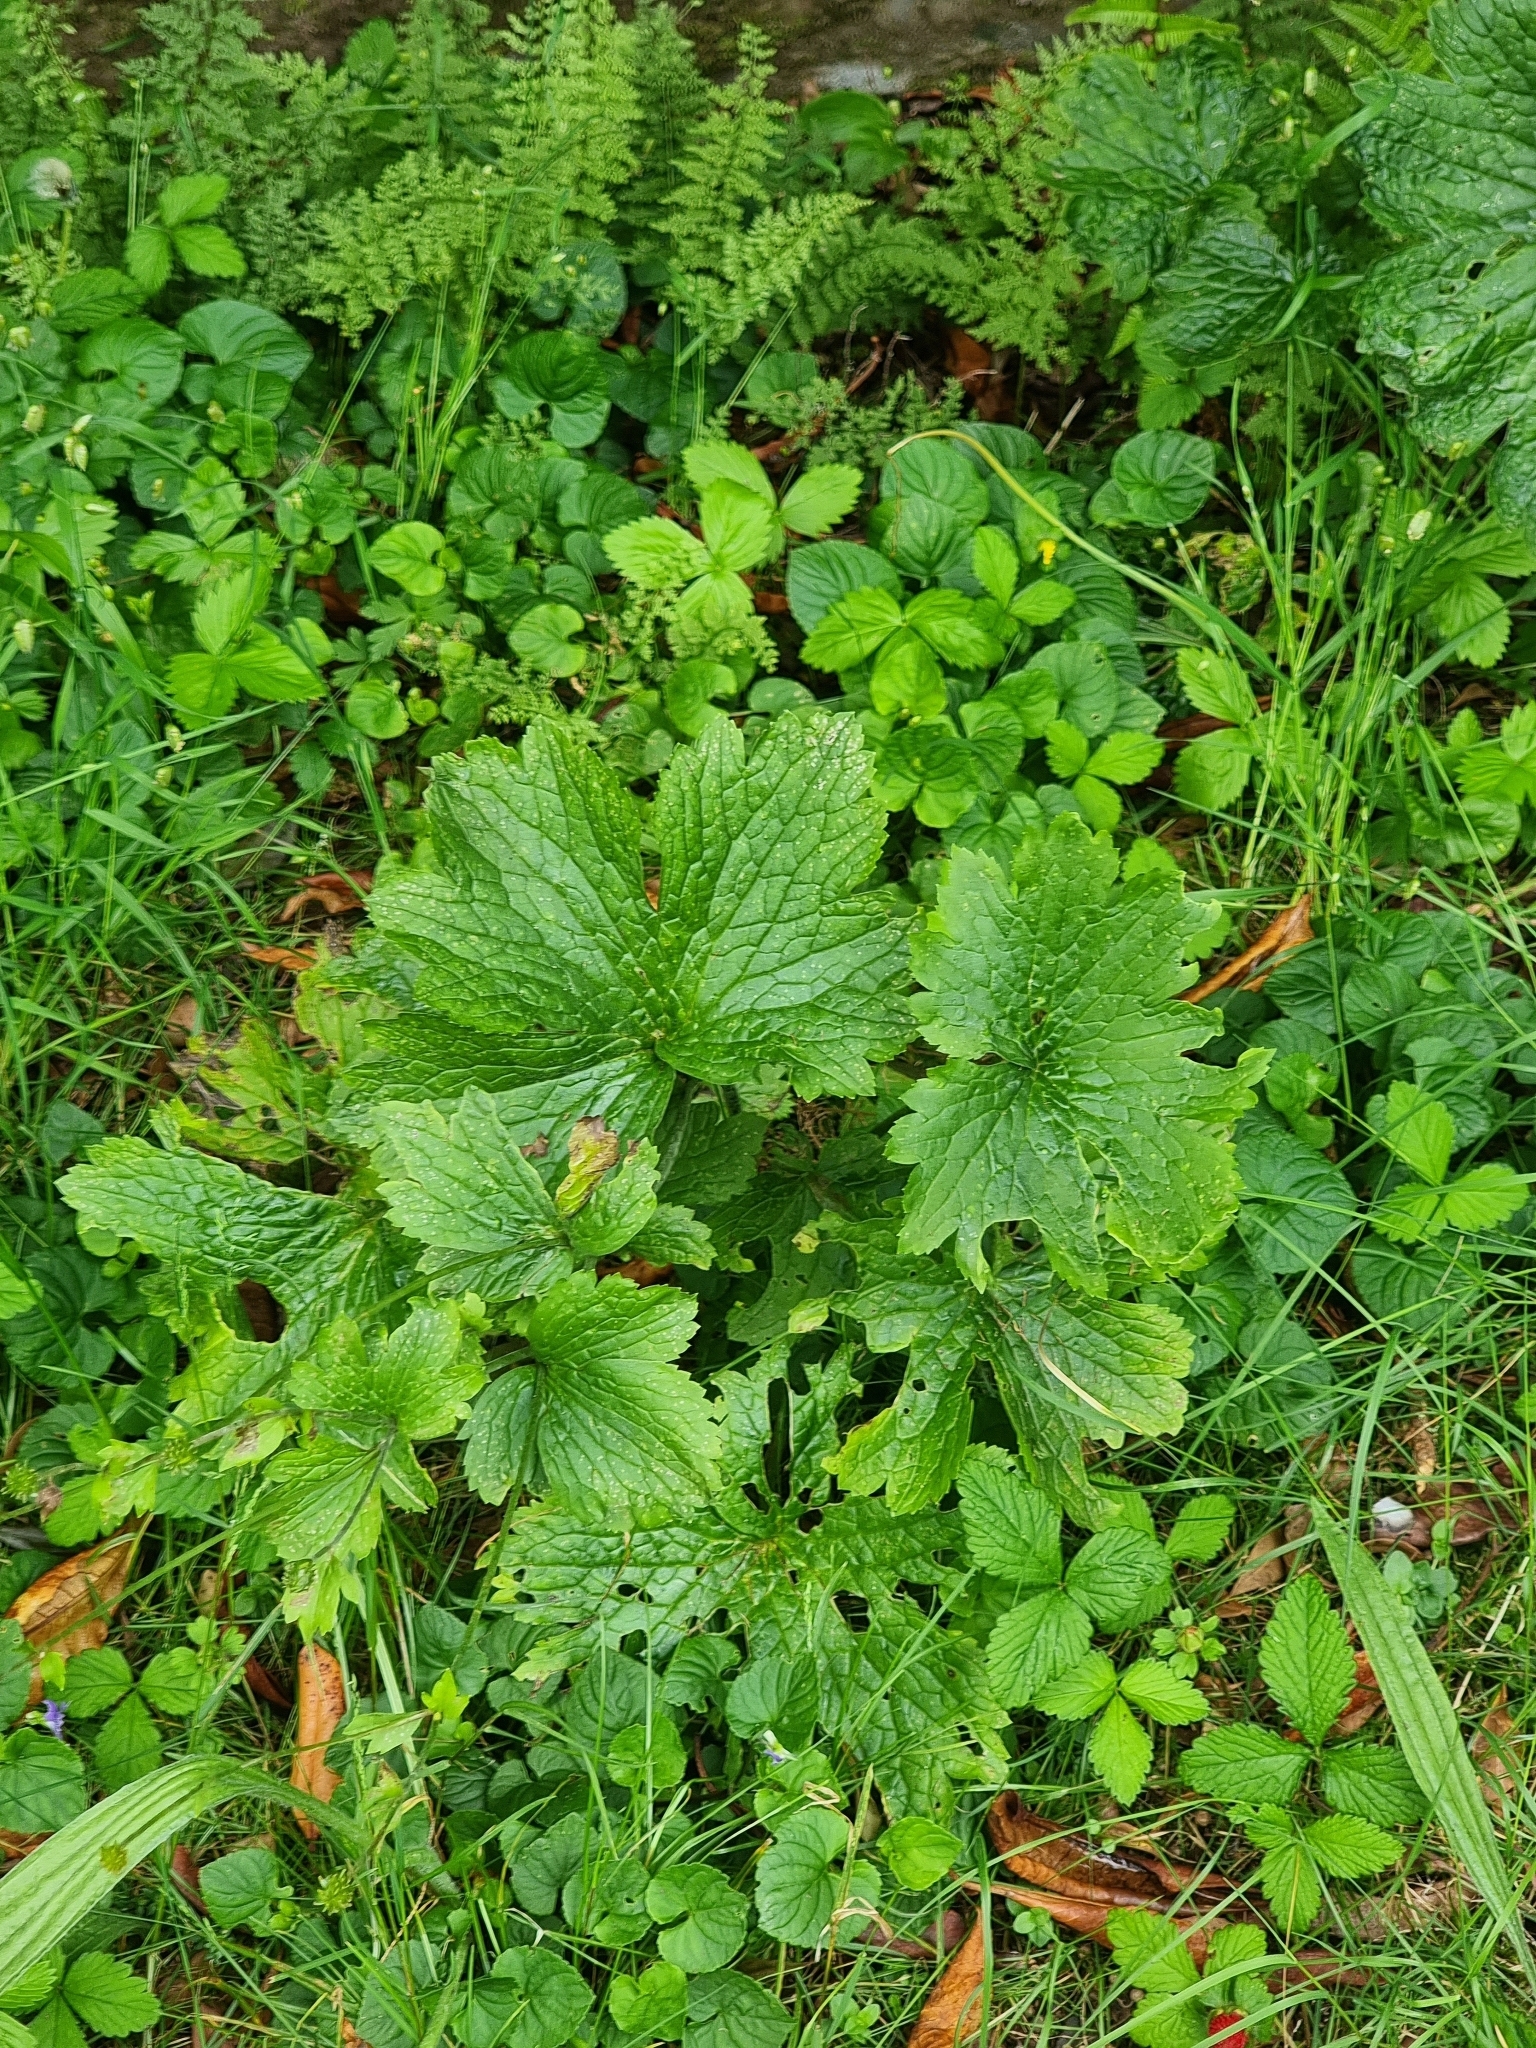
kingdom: Plantae
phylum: Tracheophyta
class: Magnoliopsida
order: Ranunculales
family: Ranunculaceae
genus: Ranunculus
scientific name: Ranunculus cortusifolius
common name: Azores buttercup
